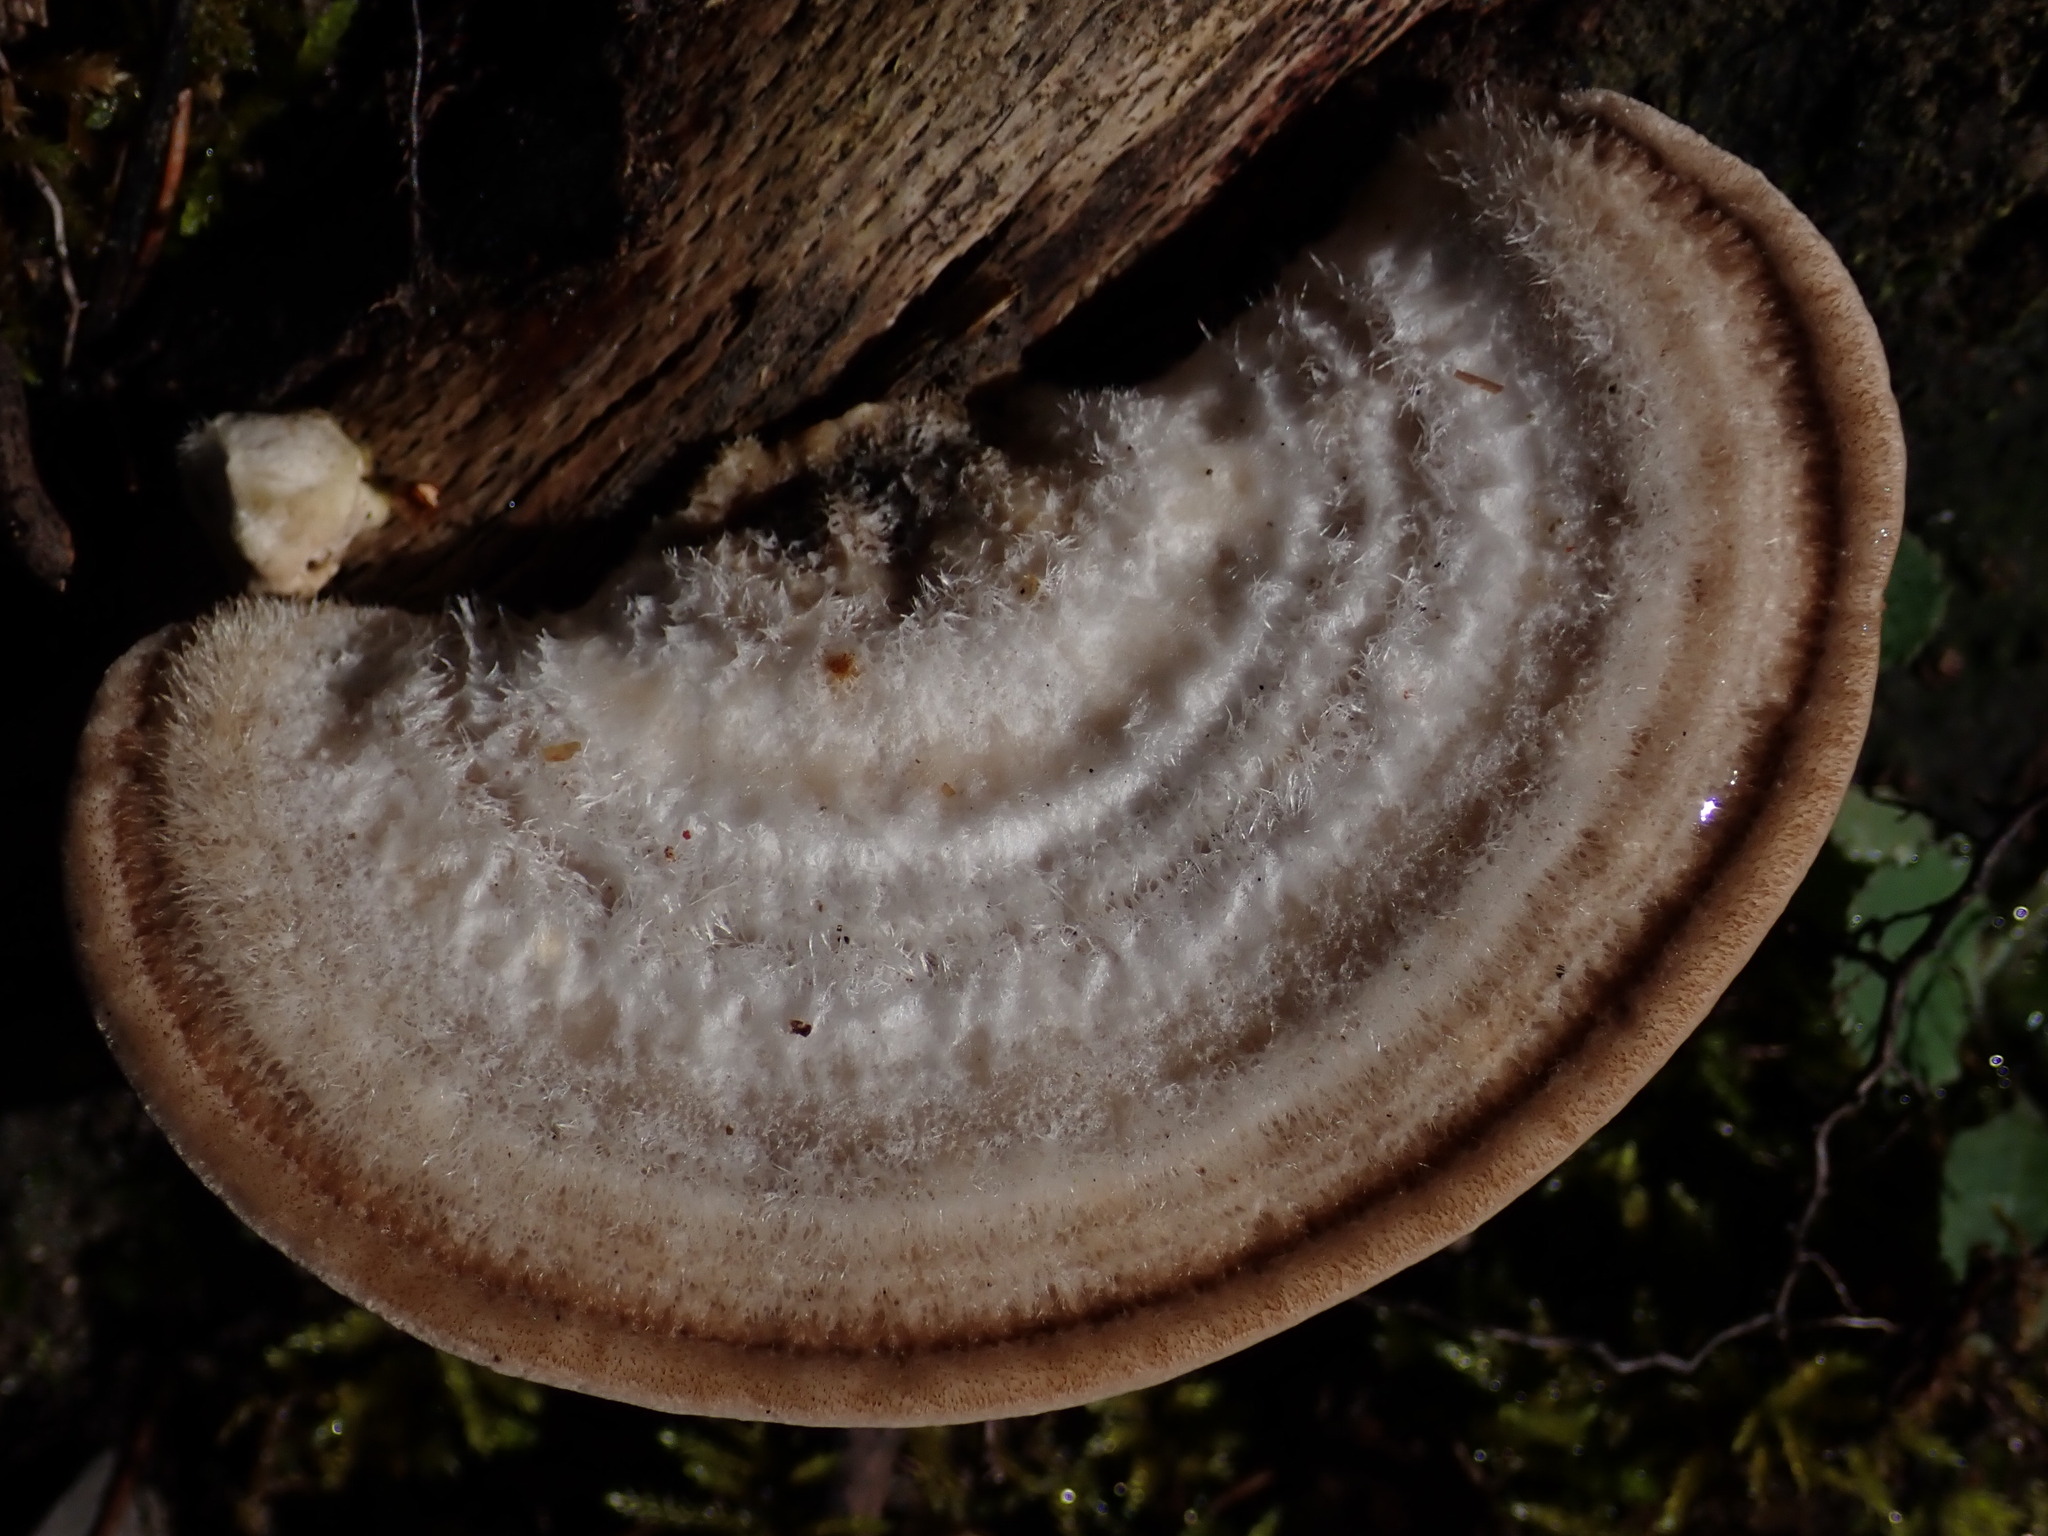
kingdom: Fungi
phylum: Basidiomycota
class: Agaricomycetes
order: Polyporales
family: Polyporaceae
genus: Trametes
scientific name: Trametes hirsuta
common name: Hairy bracket
